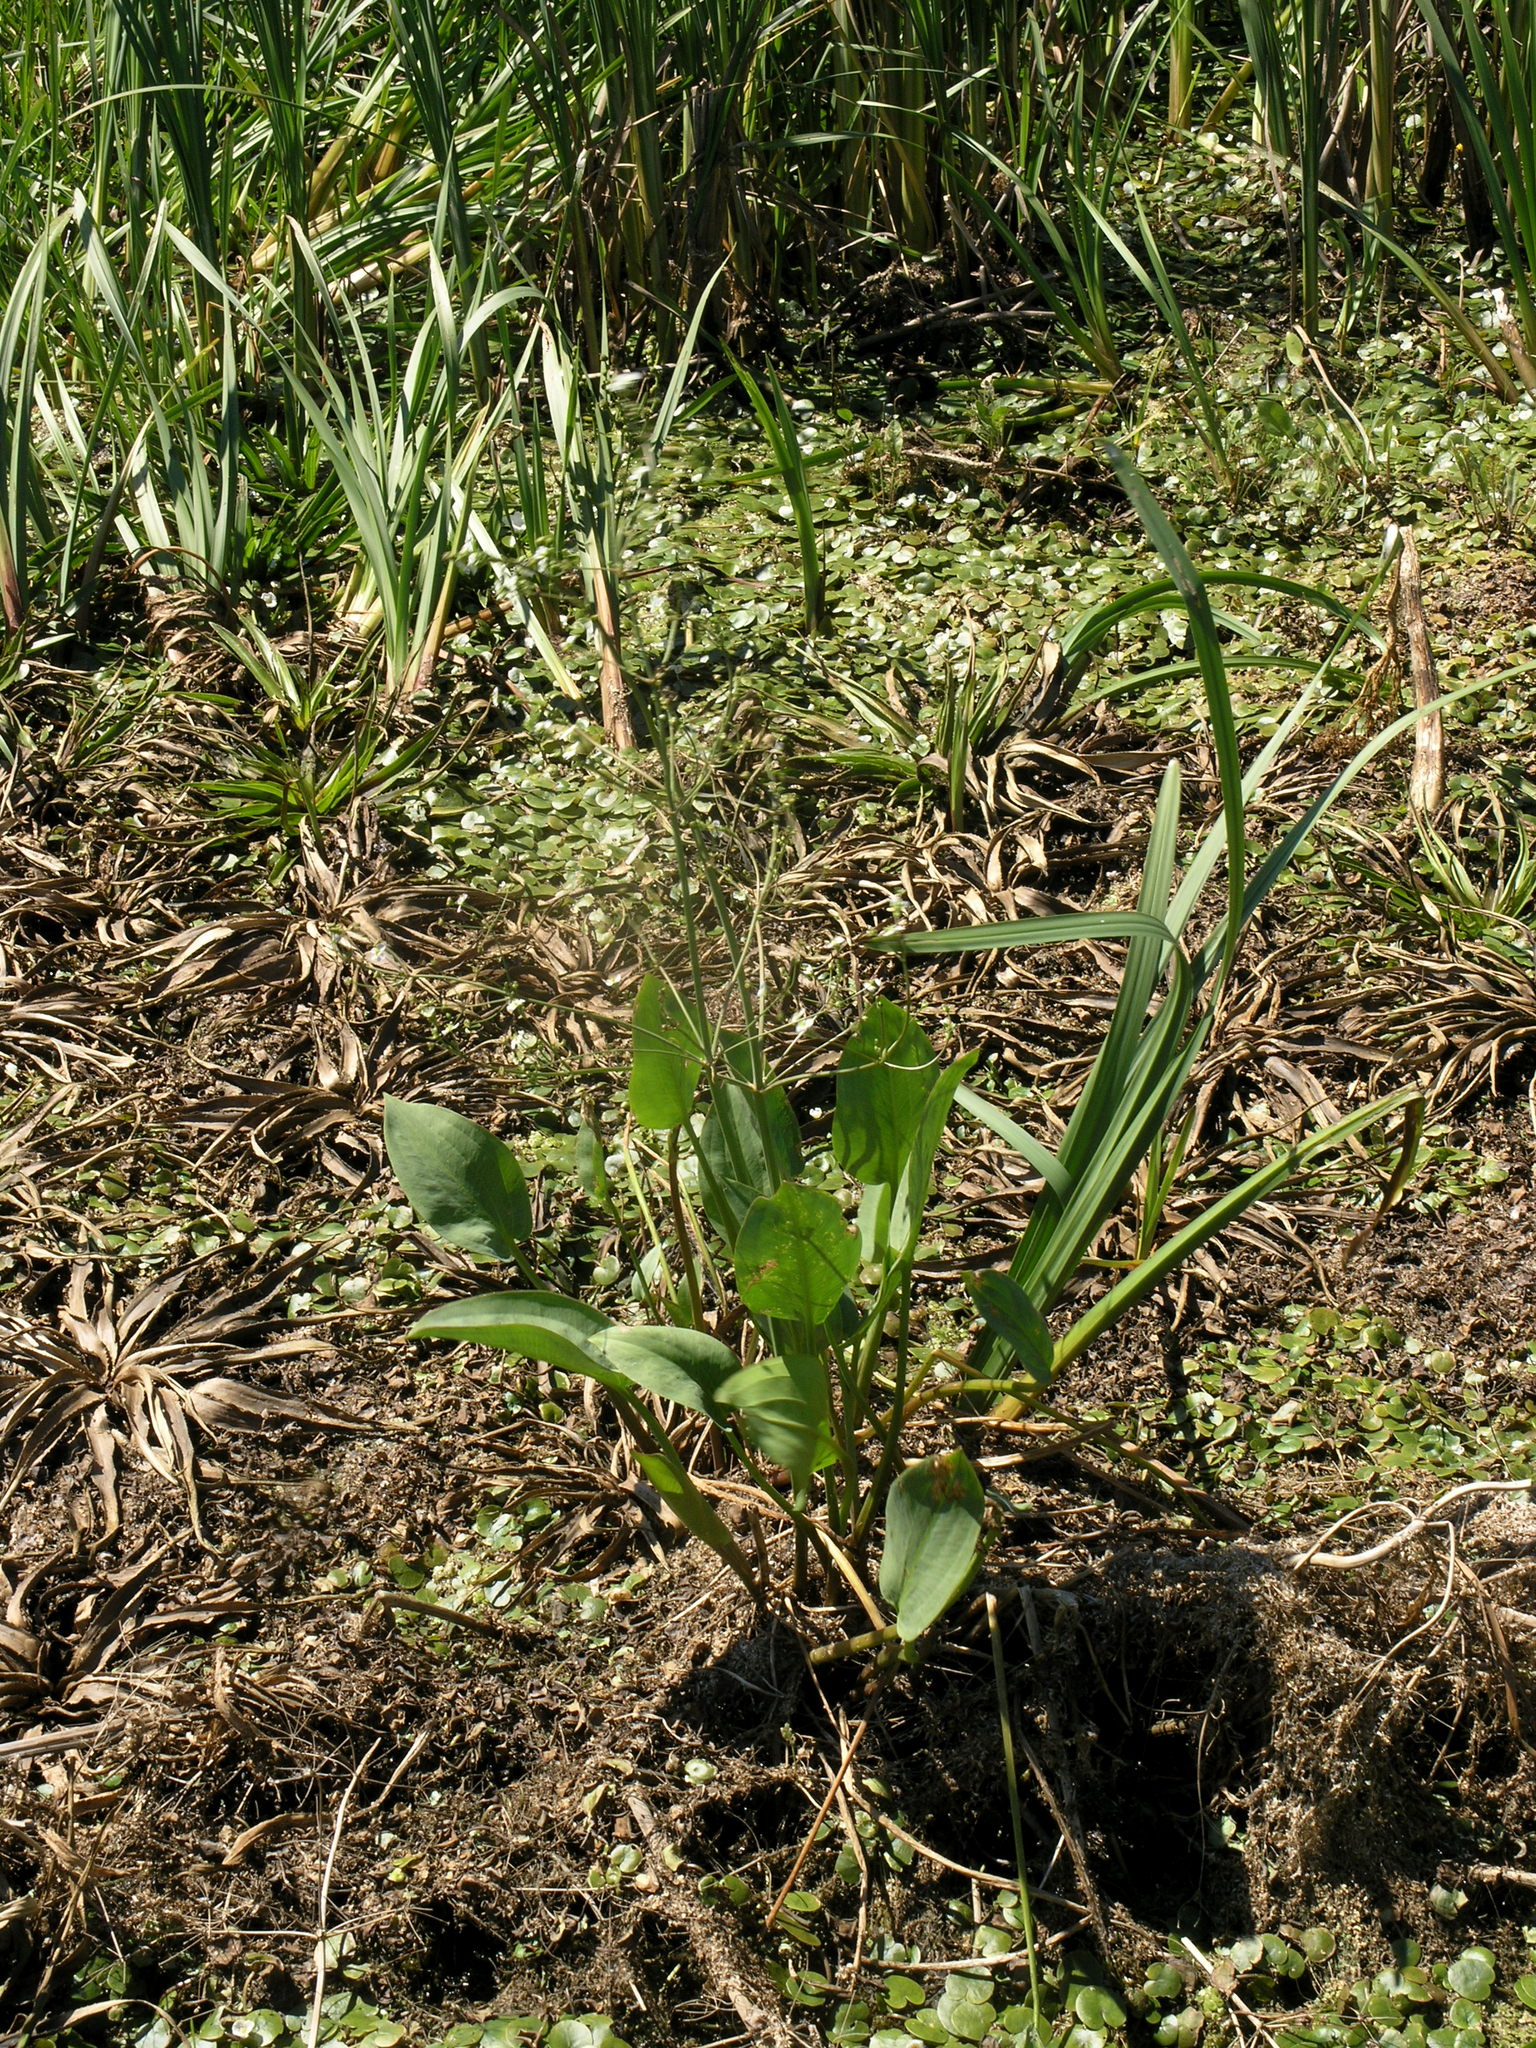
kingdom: Plantae
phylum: Tracheophyta
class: Liliopsida
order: Alismatales
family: Alismataceae
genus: Alisma
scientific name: Alisma plantago-aquatica
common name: Water-plantain
